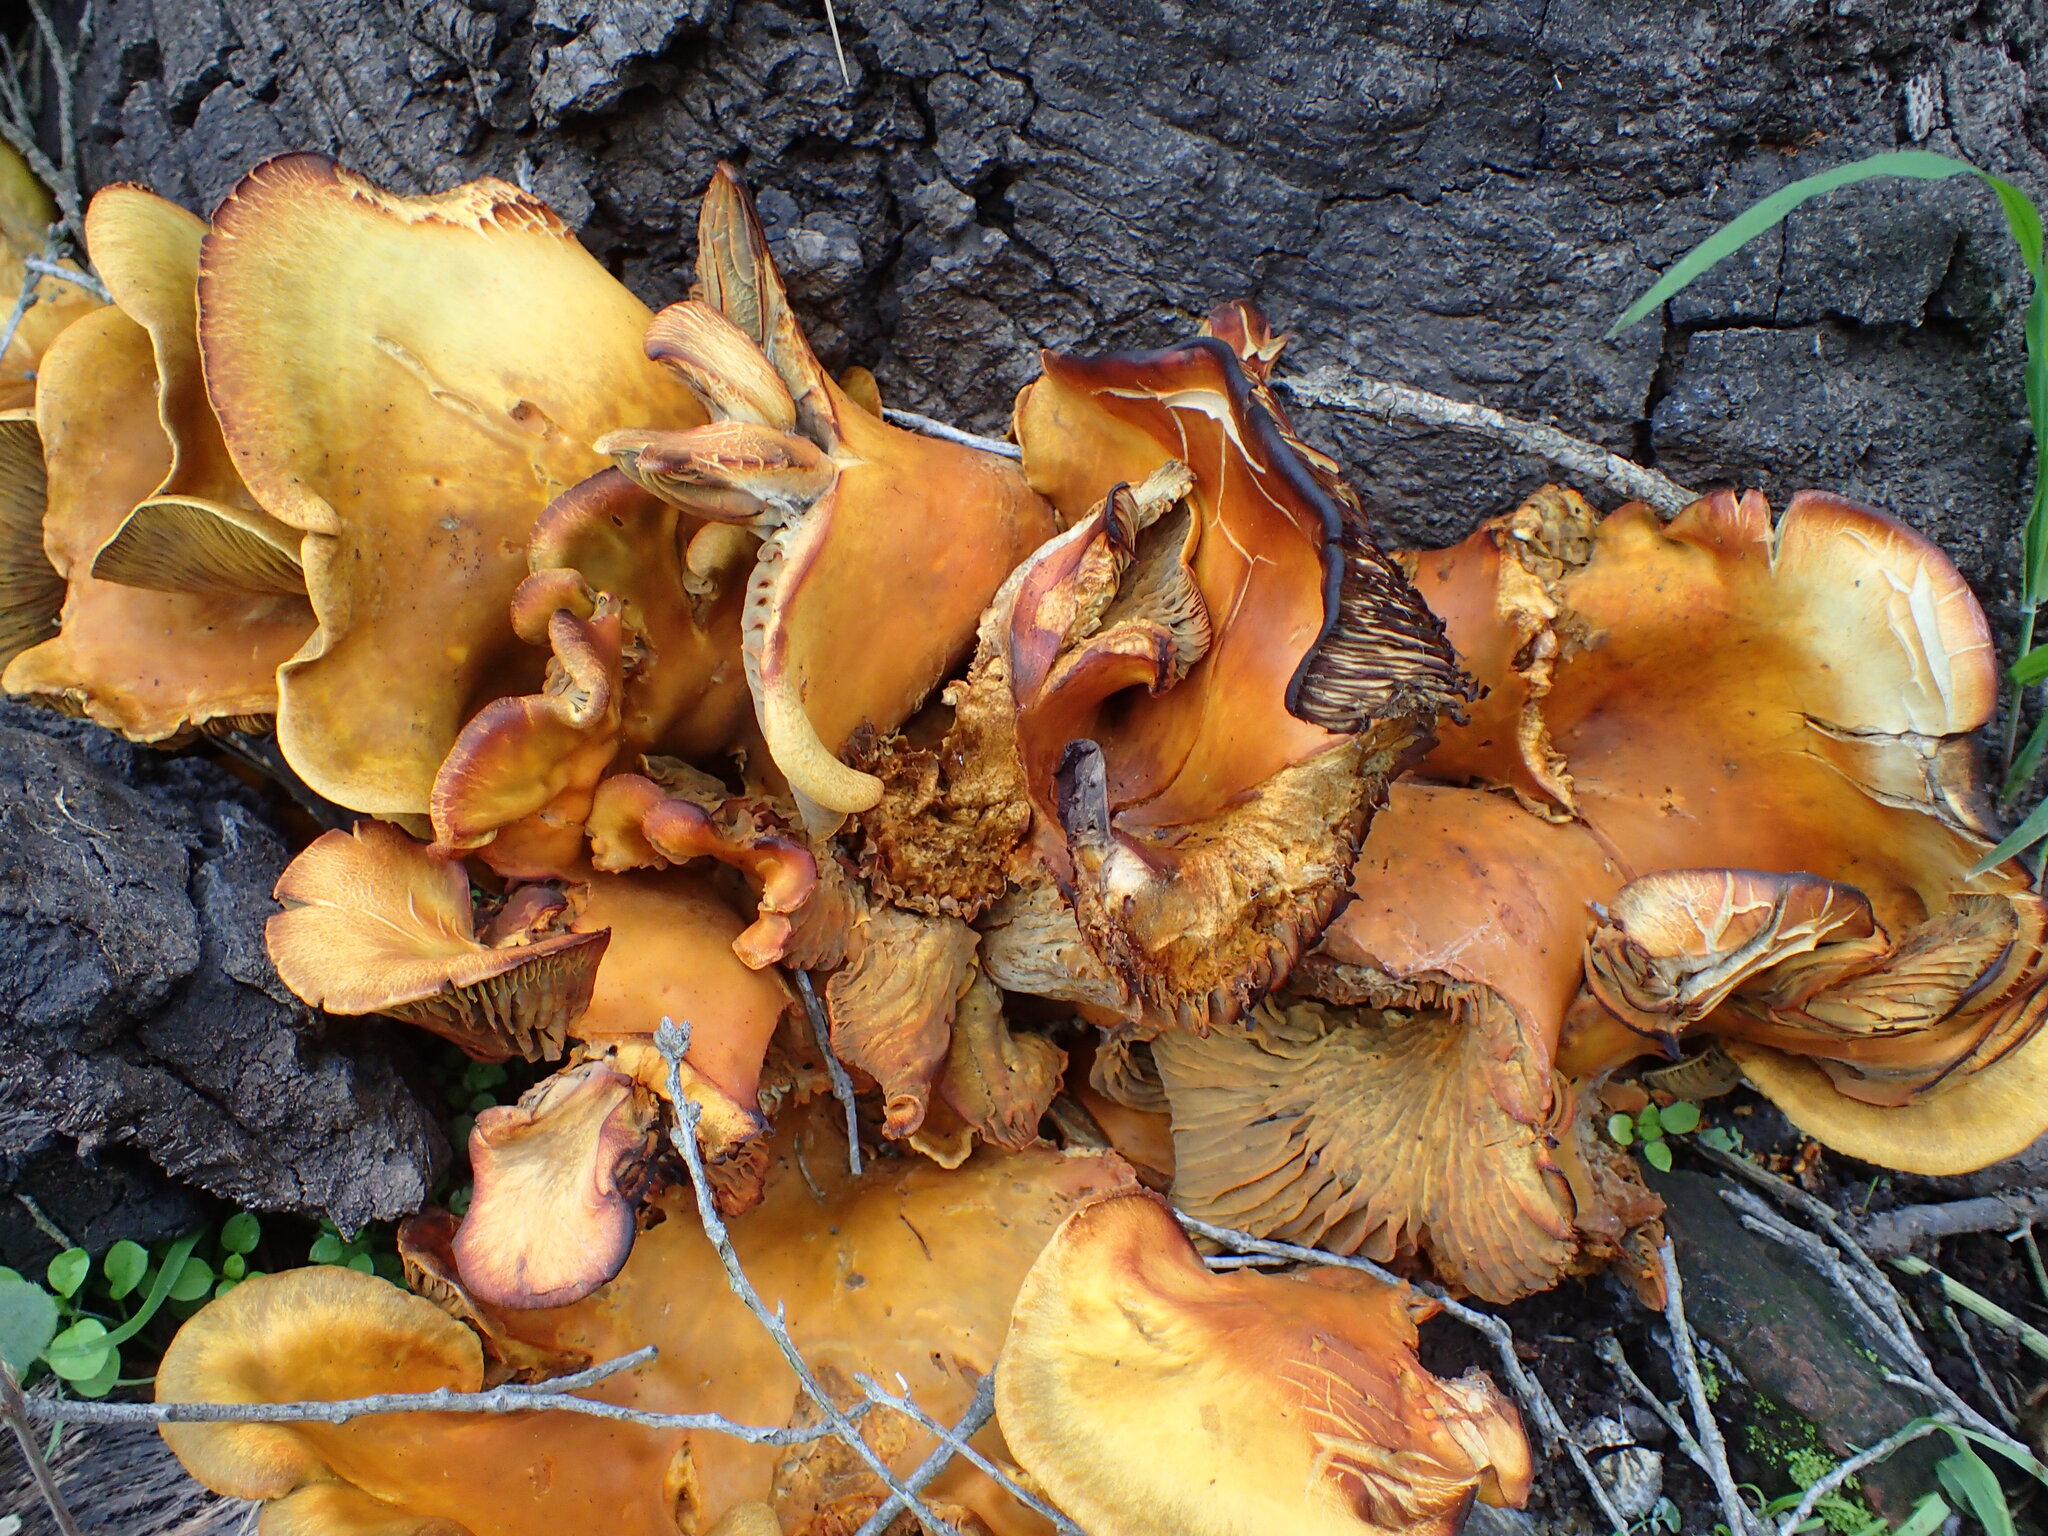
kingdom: Fungi
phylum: Basidiomycota
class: Agaricomycetes
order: Agaricales
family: Omphalotaceae
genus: Omphalotus
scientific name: Omphalotus olivascens
